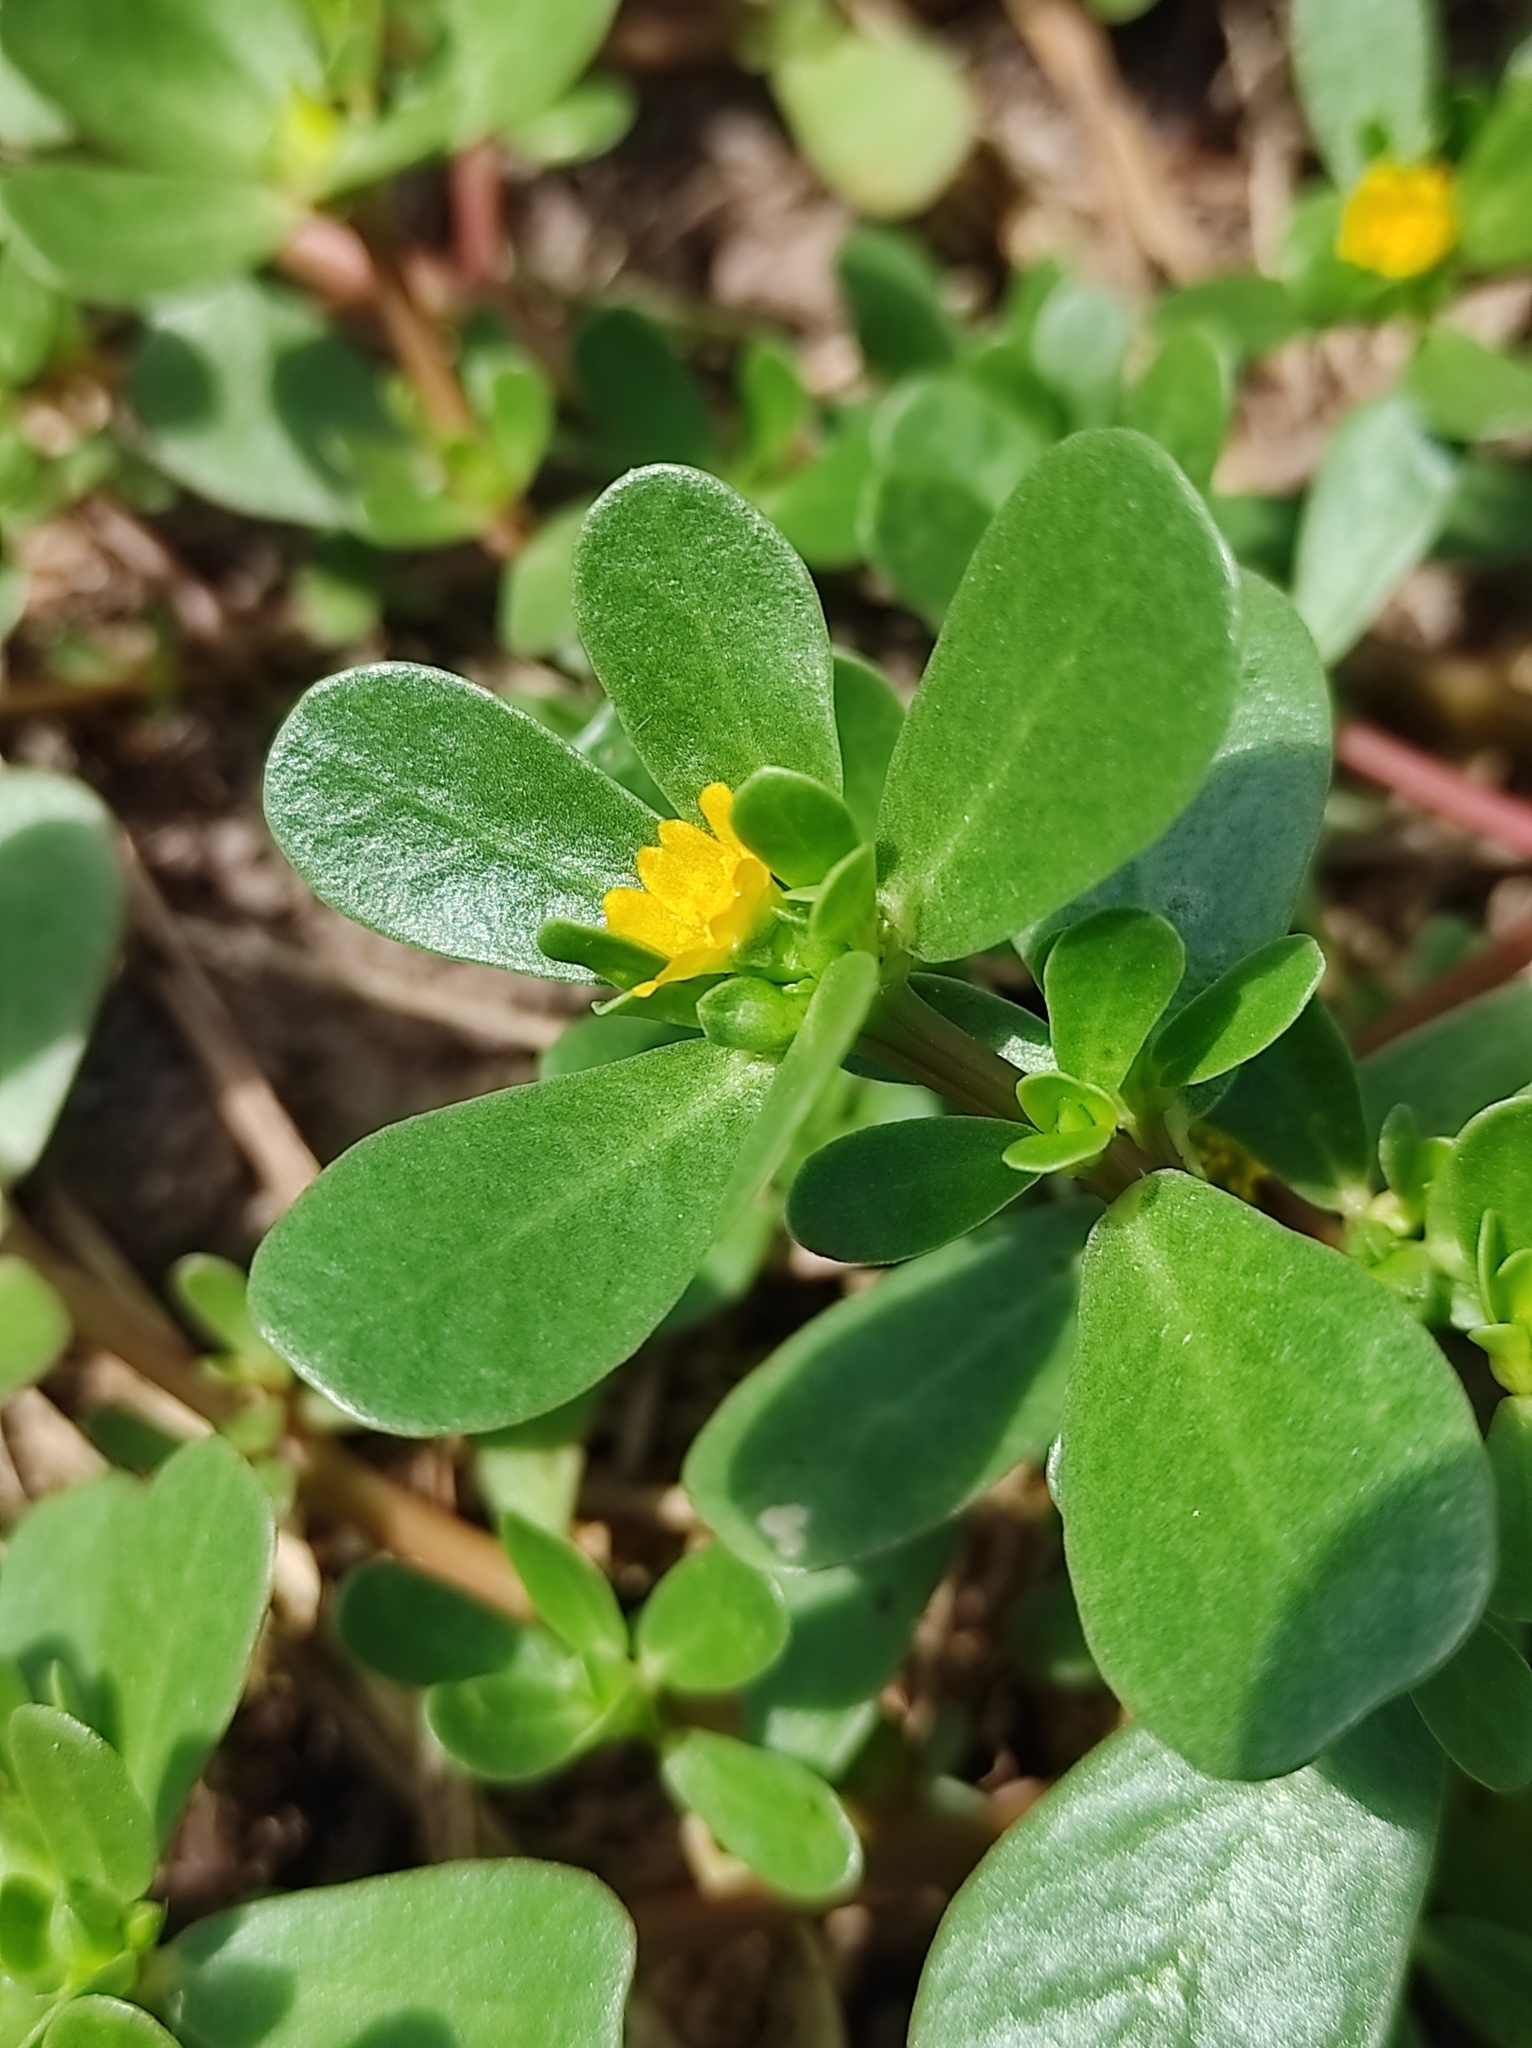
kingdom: Plantae
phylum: Tracheophyta
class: Magnoliopsida
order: Caryophyllales
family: Portulacaceae
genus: Portulaca
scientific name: Portulaca oleracea
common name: Common purslane
